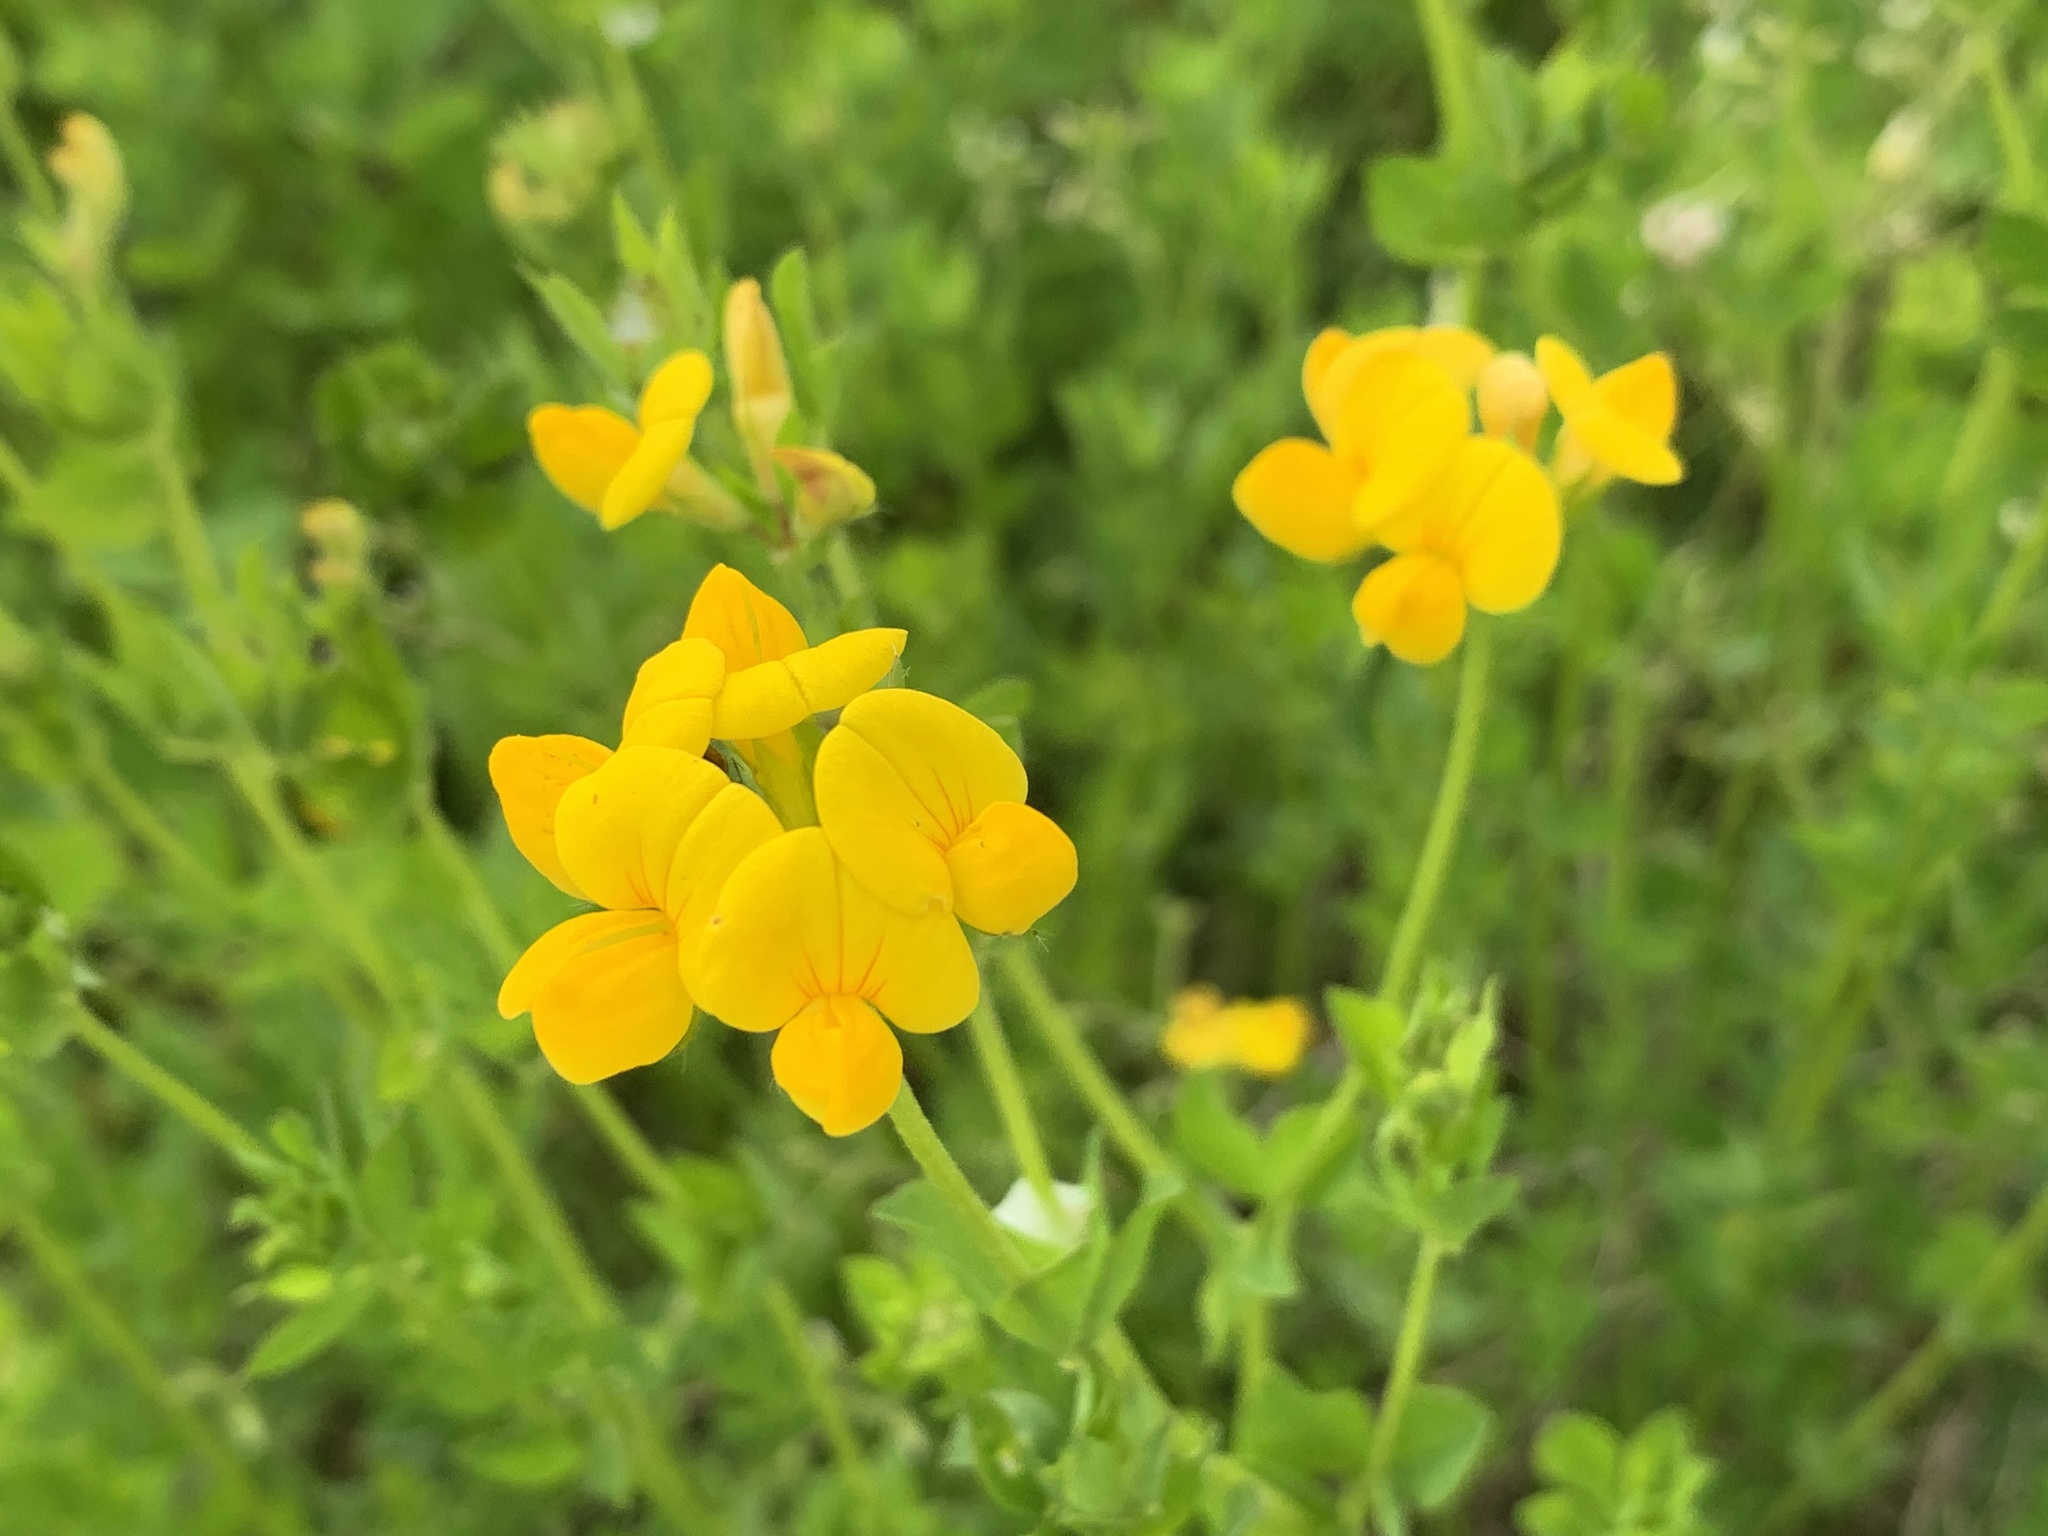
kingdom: Plantae
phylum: Tracheophyta
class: Magnoliopsida
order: Fabales
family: Fabaceae
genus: Lotus
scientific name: Lotus corniculatus
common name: Common bird's-foot-trefoil
